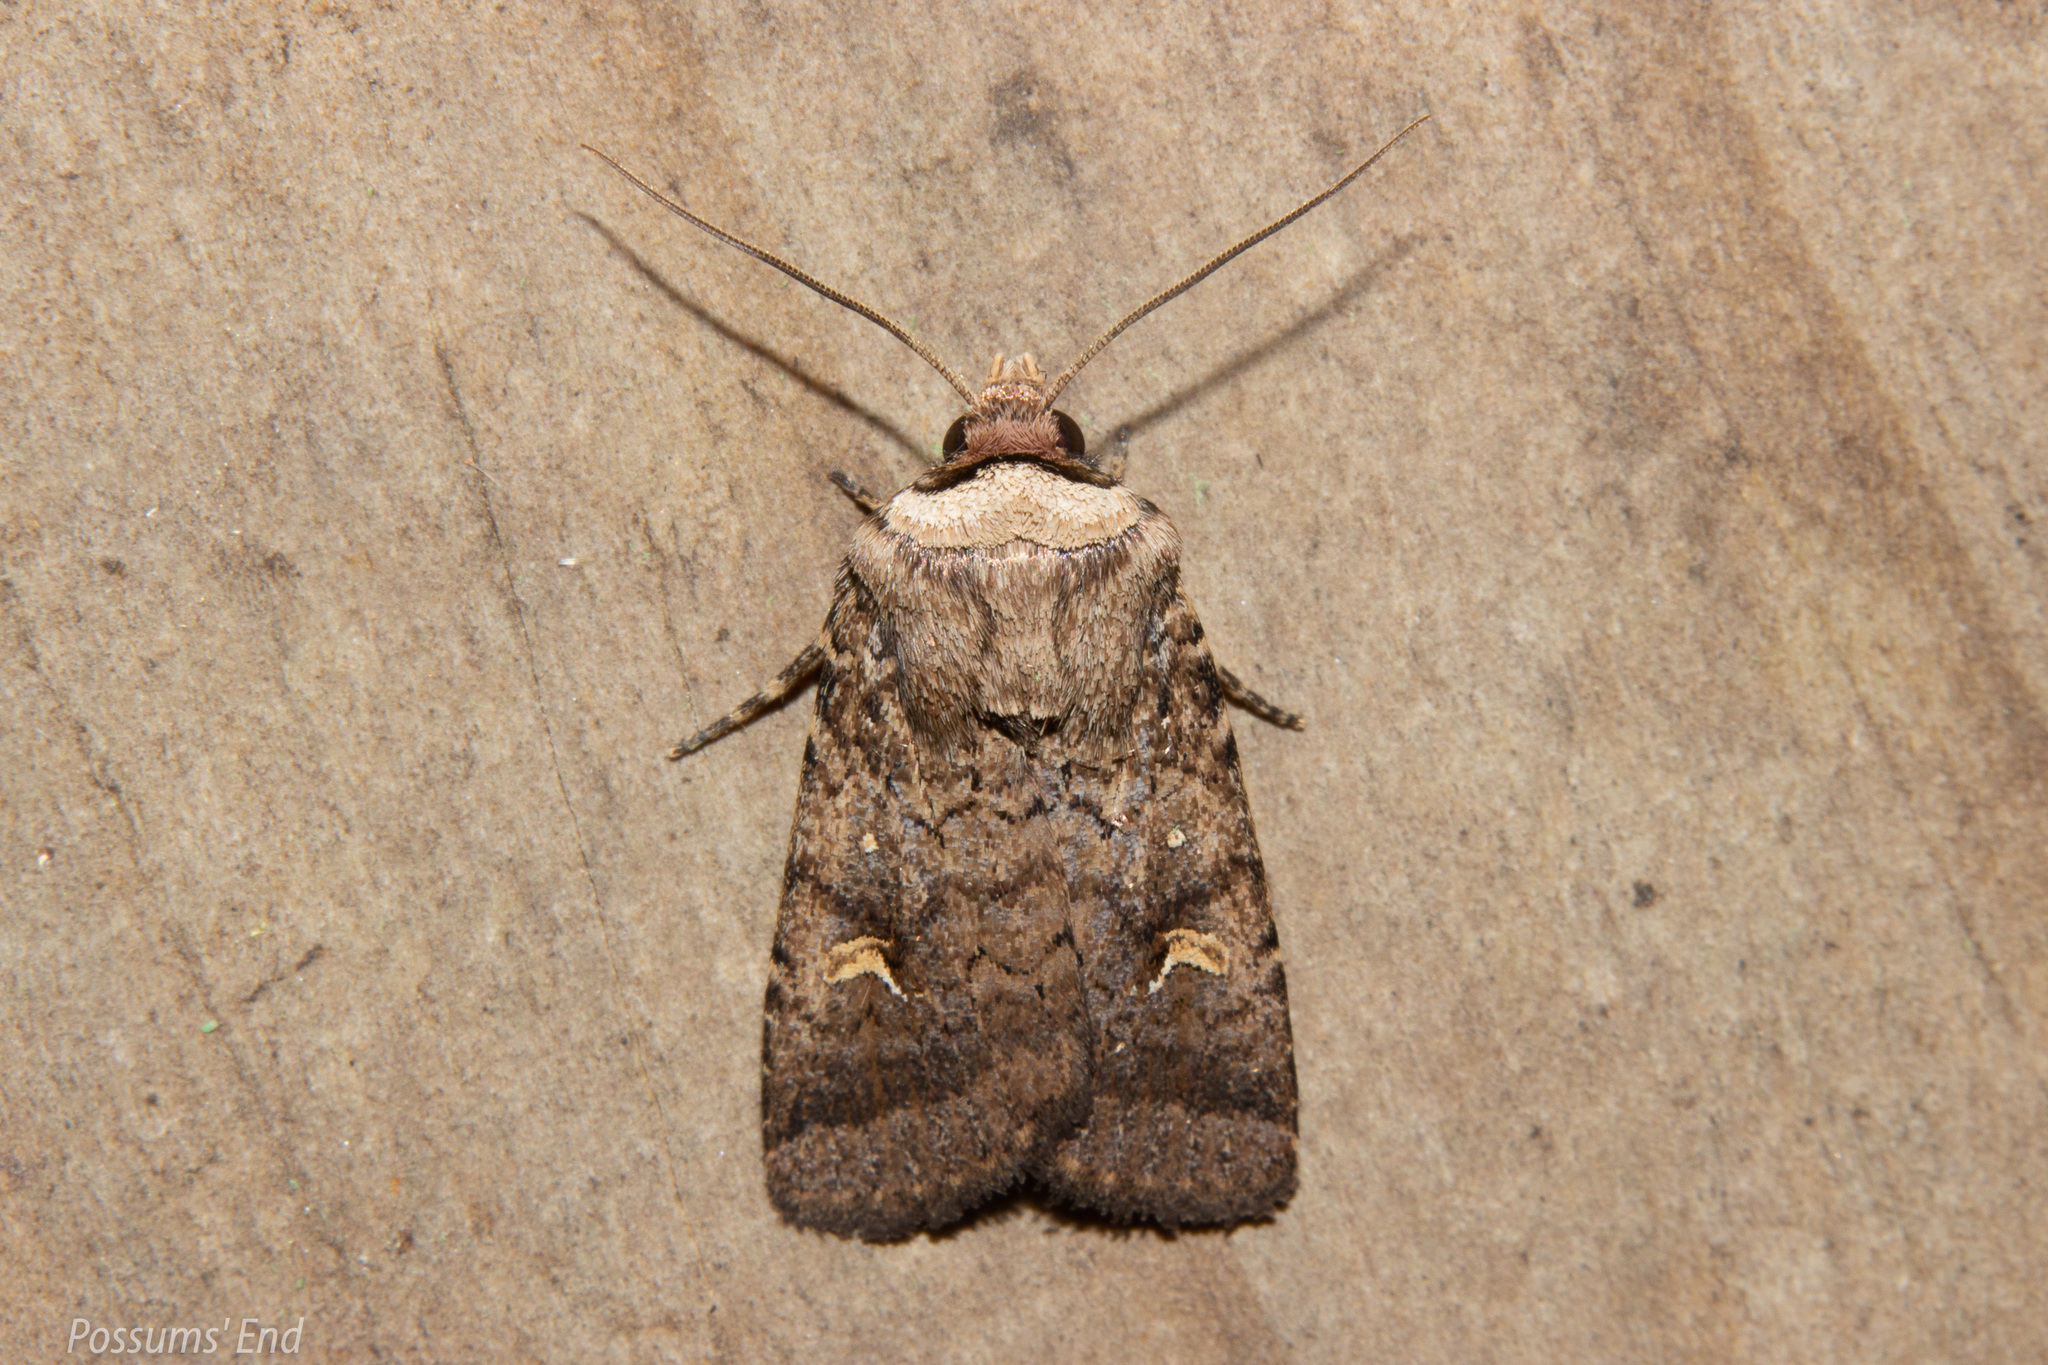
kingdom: Animalia
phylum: Arthropoda
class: Insecta
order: Lepidoptera
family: Noctuidae
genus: Proteuxoa
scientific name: Proteuxoa tetronycha
